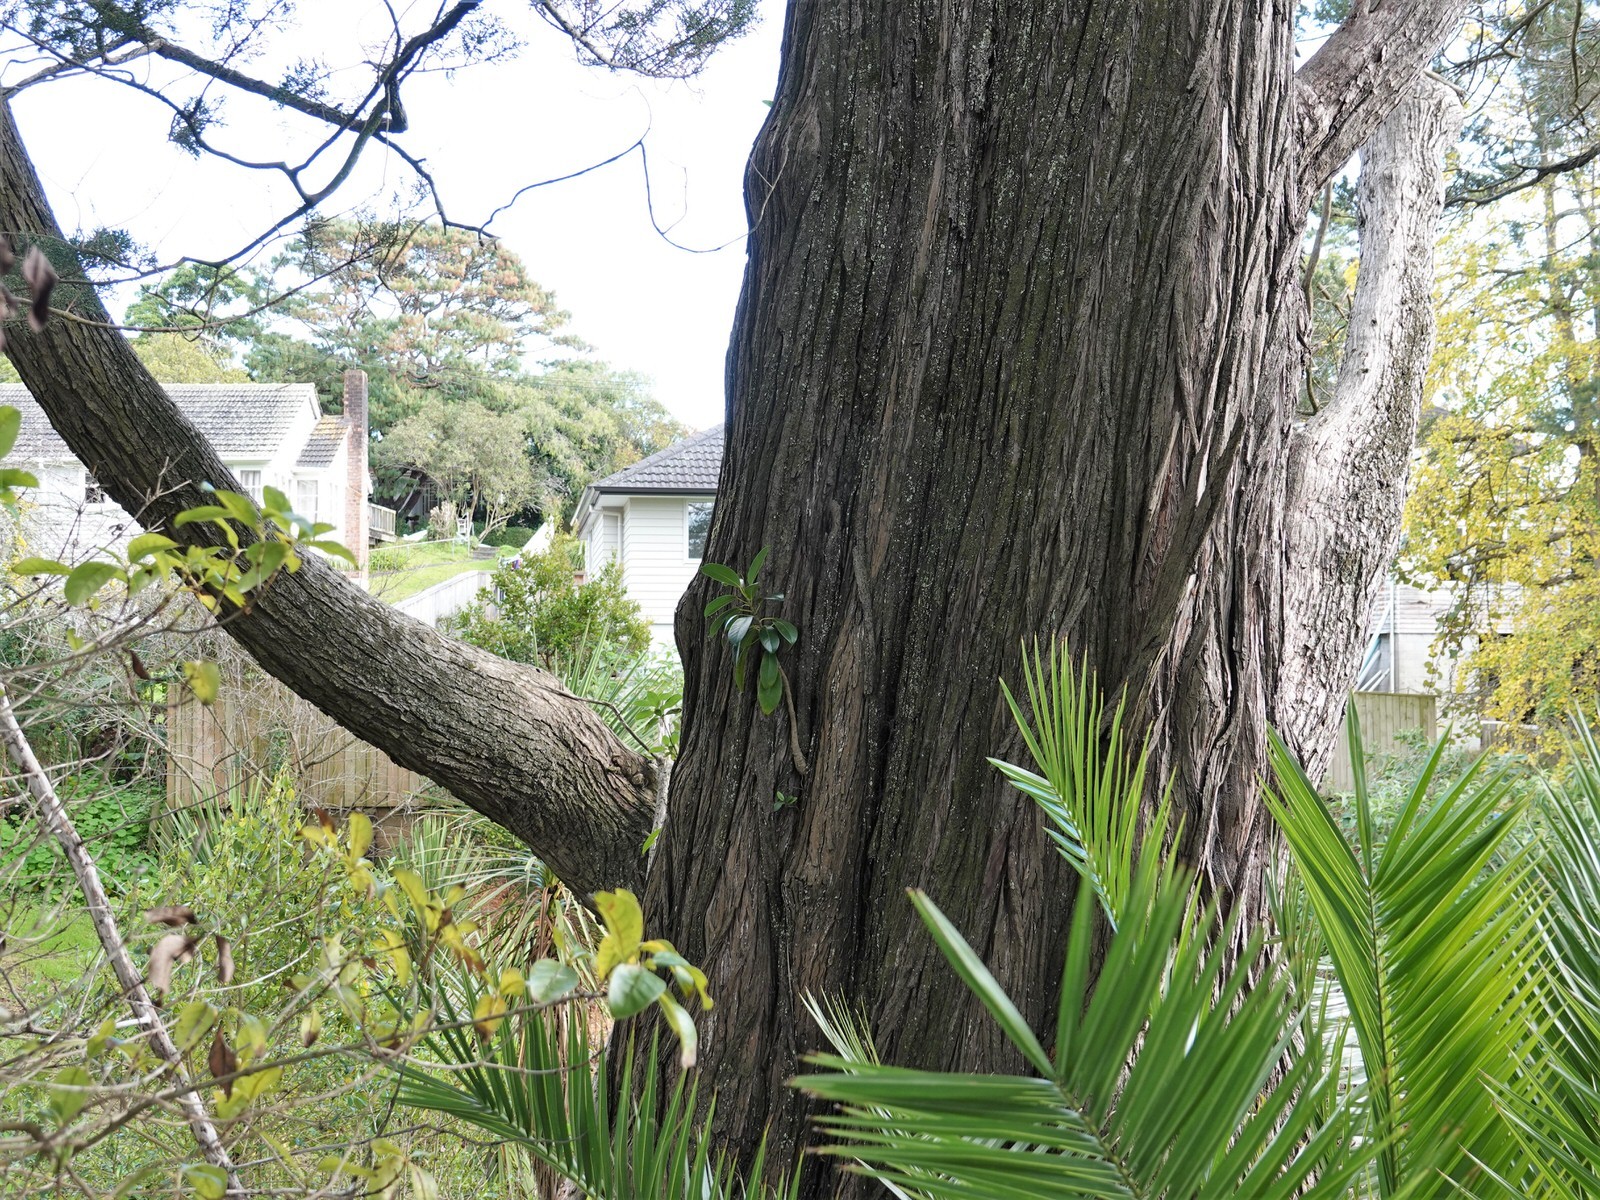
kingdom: Plantae
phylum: Tracheophyta
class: Magnoliopsida
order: Rosales
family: Moraceae
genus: Ficus
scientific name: Ficus macrophylla
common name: Moreton bay fig
